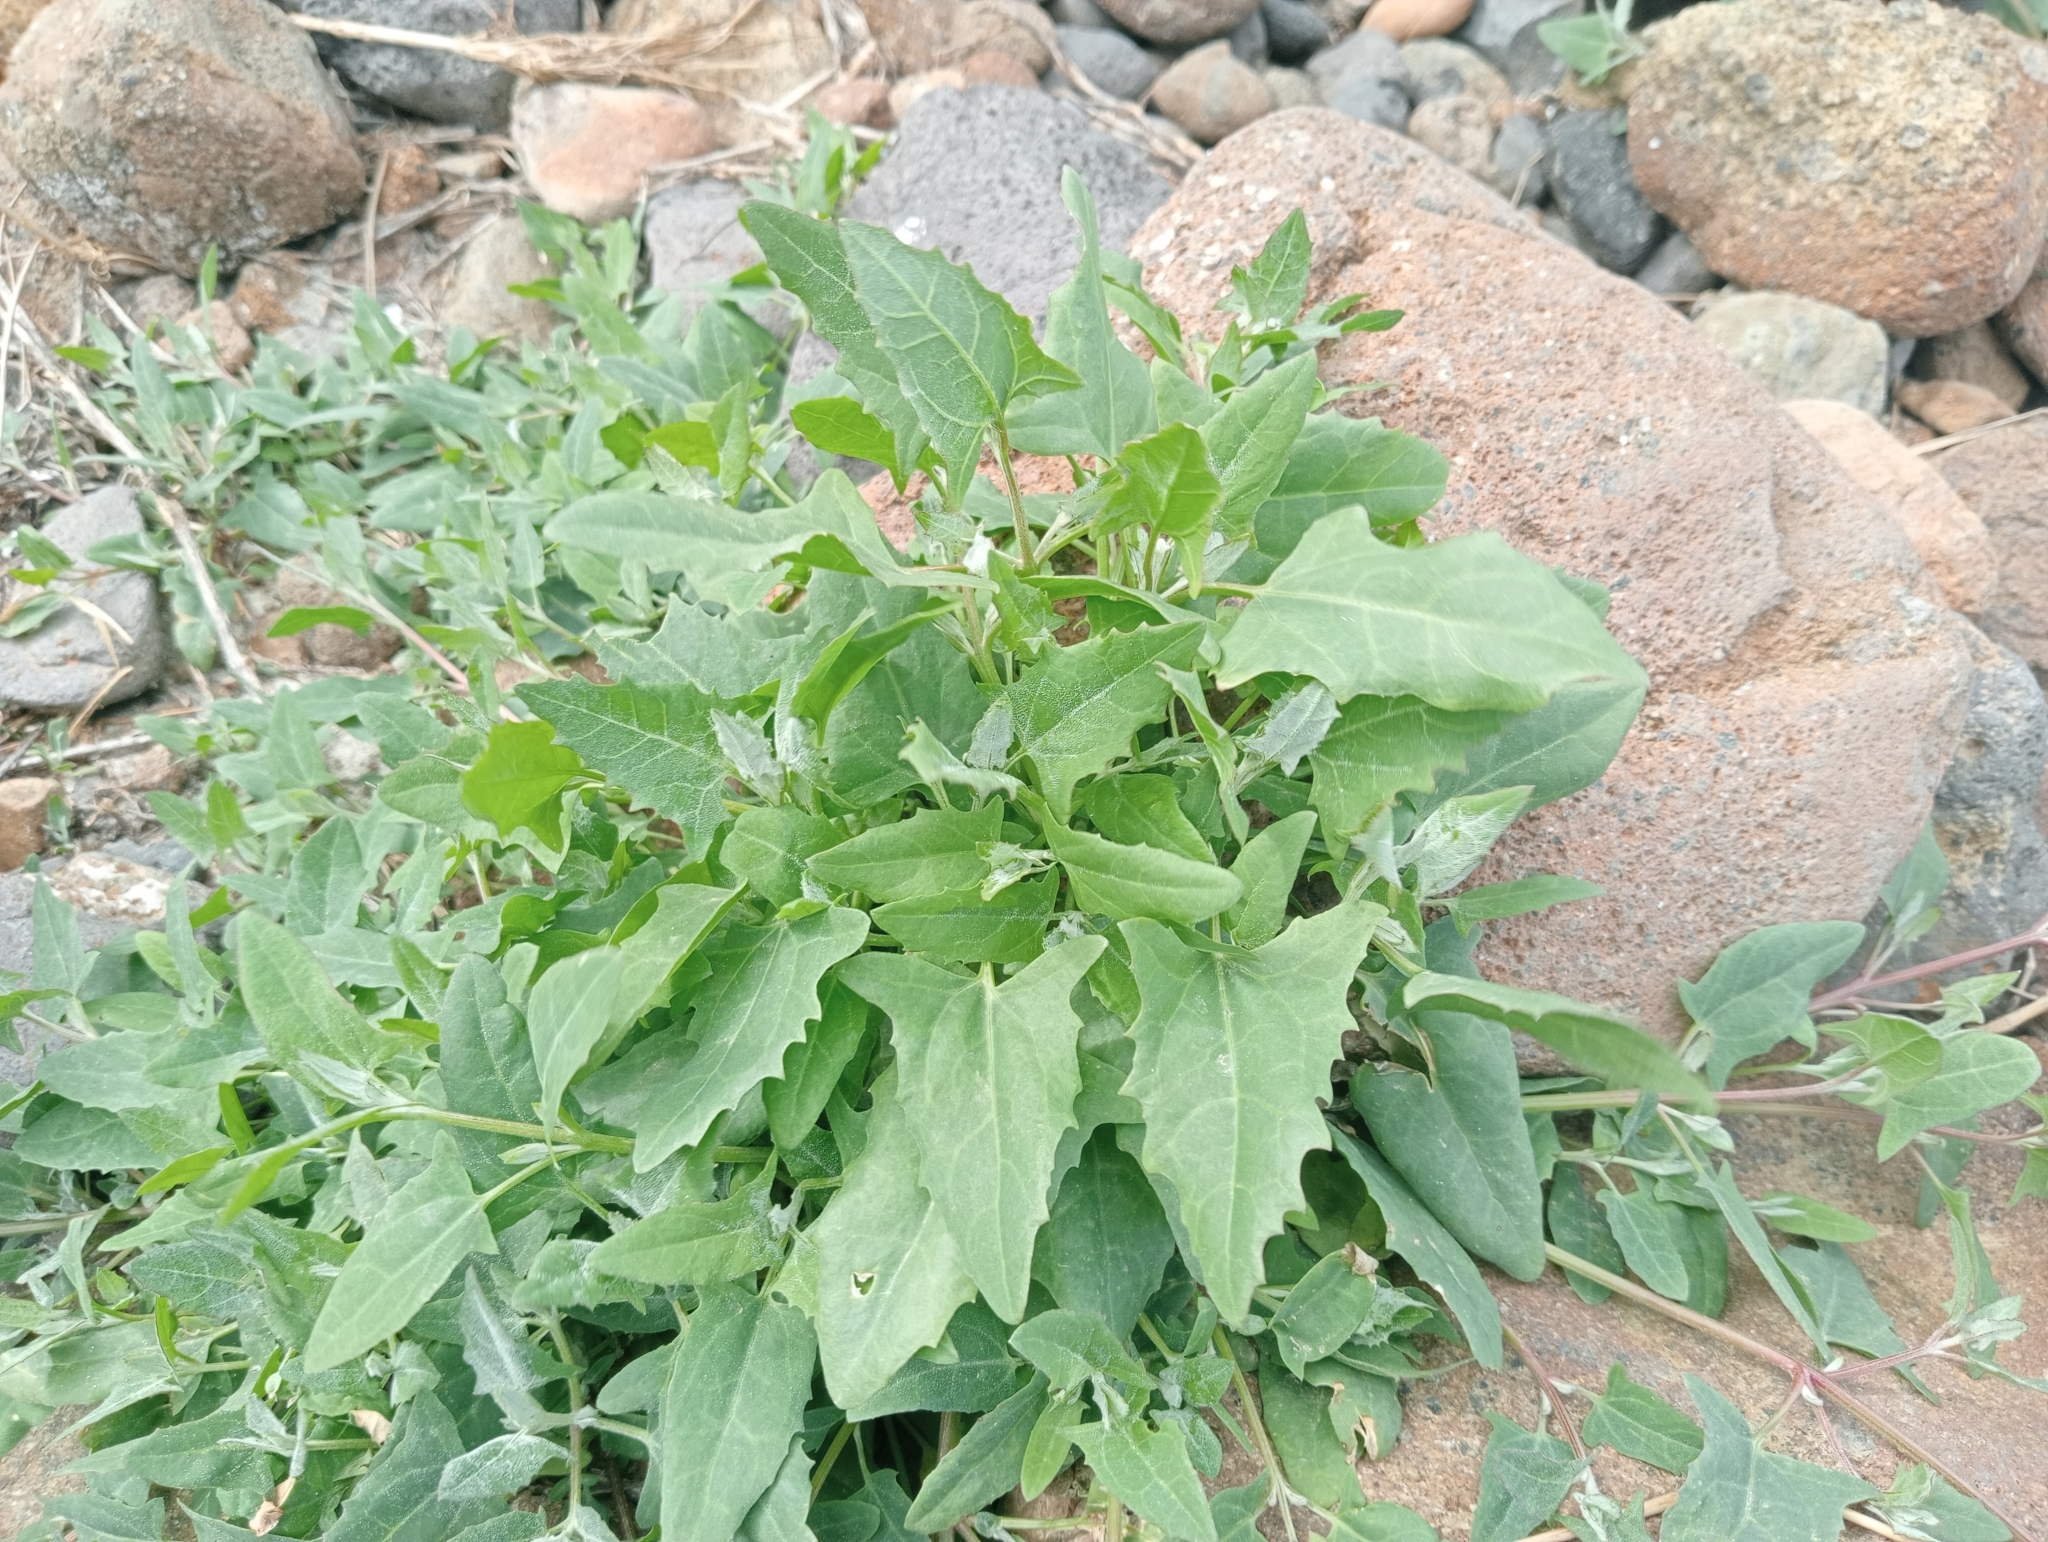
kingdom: Plantae
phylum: Tracheophyta
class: Magnoliopsida
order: Caryophyllales
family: Amaranthaceae
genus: Atriplex
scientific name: Atriplex prostrata
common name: Spear-leaved orache
